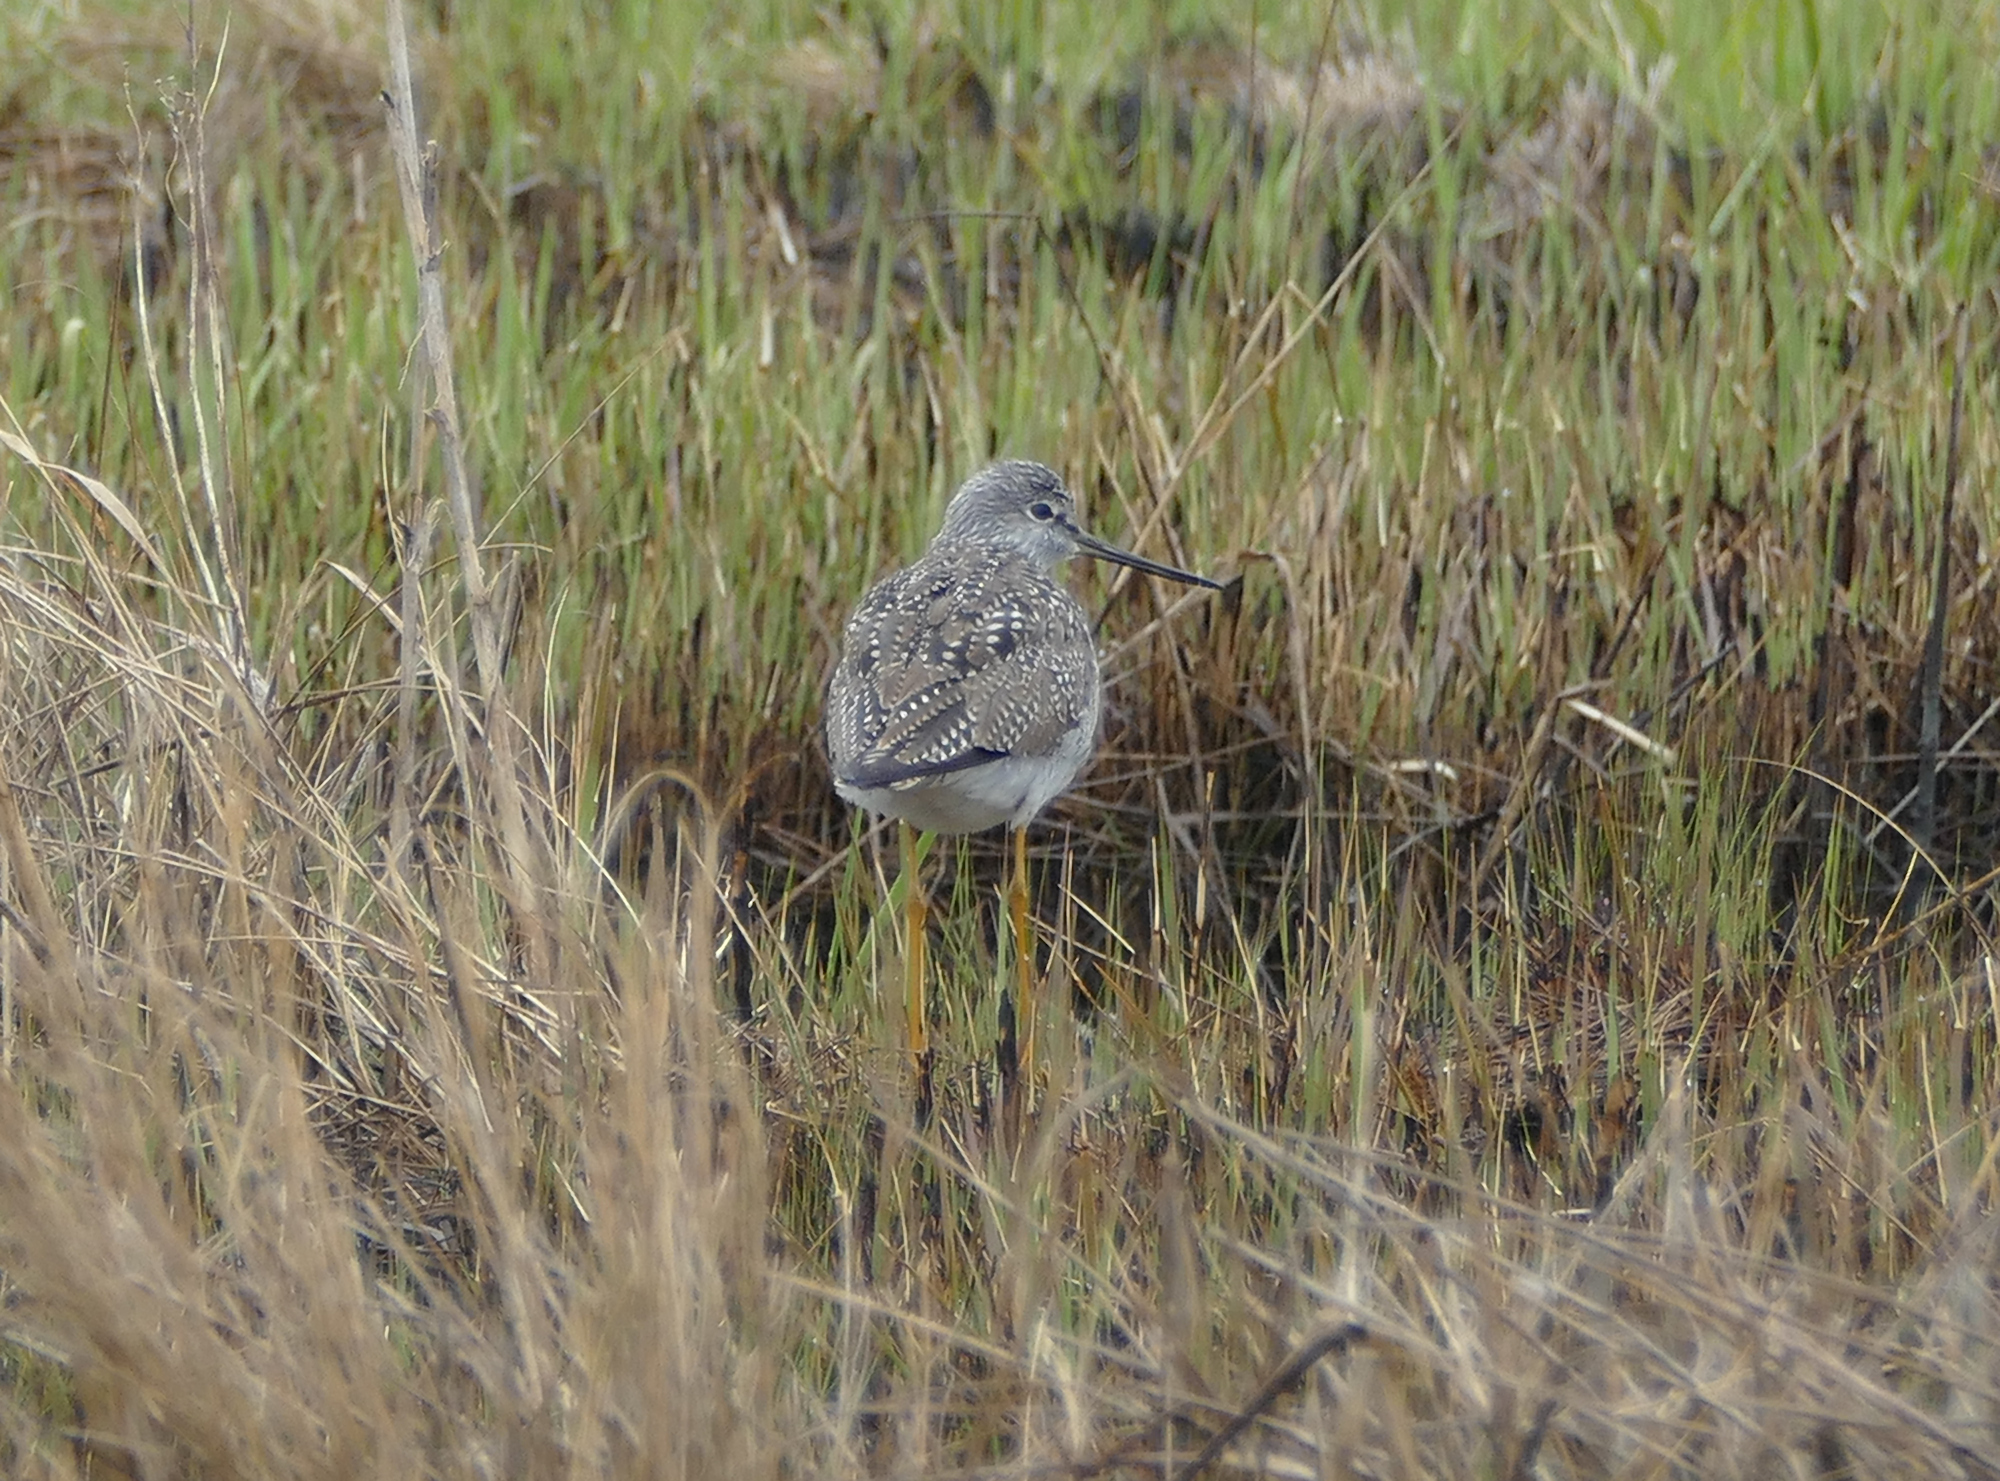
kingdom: Animalia
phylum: Chordata
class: Aves
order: Charadriiformes
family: Scolopacidae
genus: Tringa
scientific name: Tringa melanoleuca
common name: Greater yellowlegs
